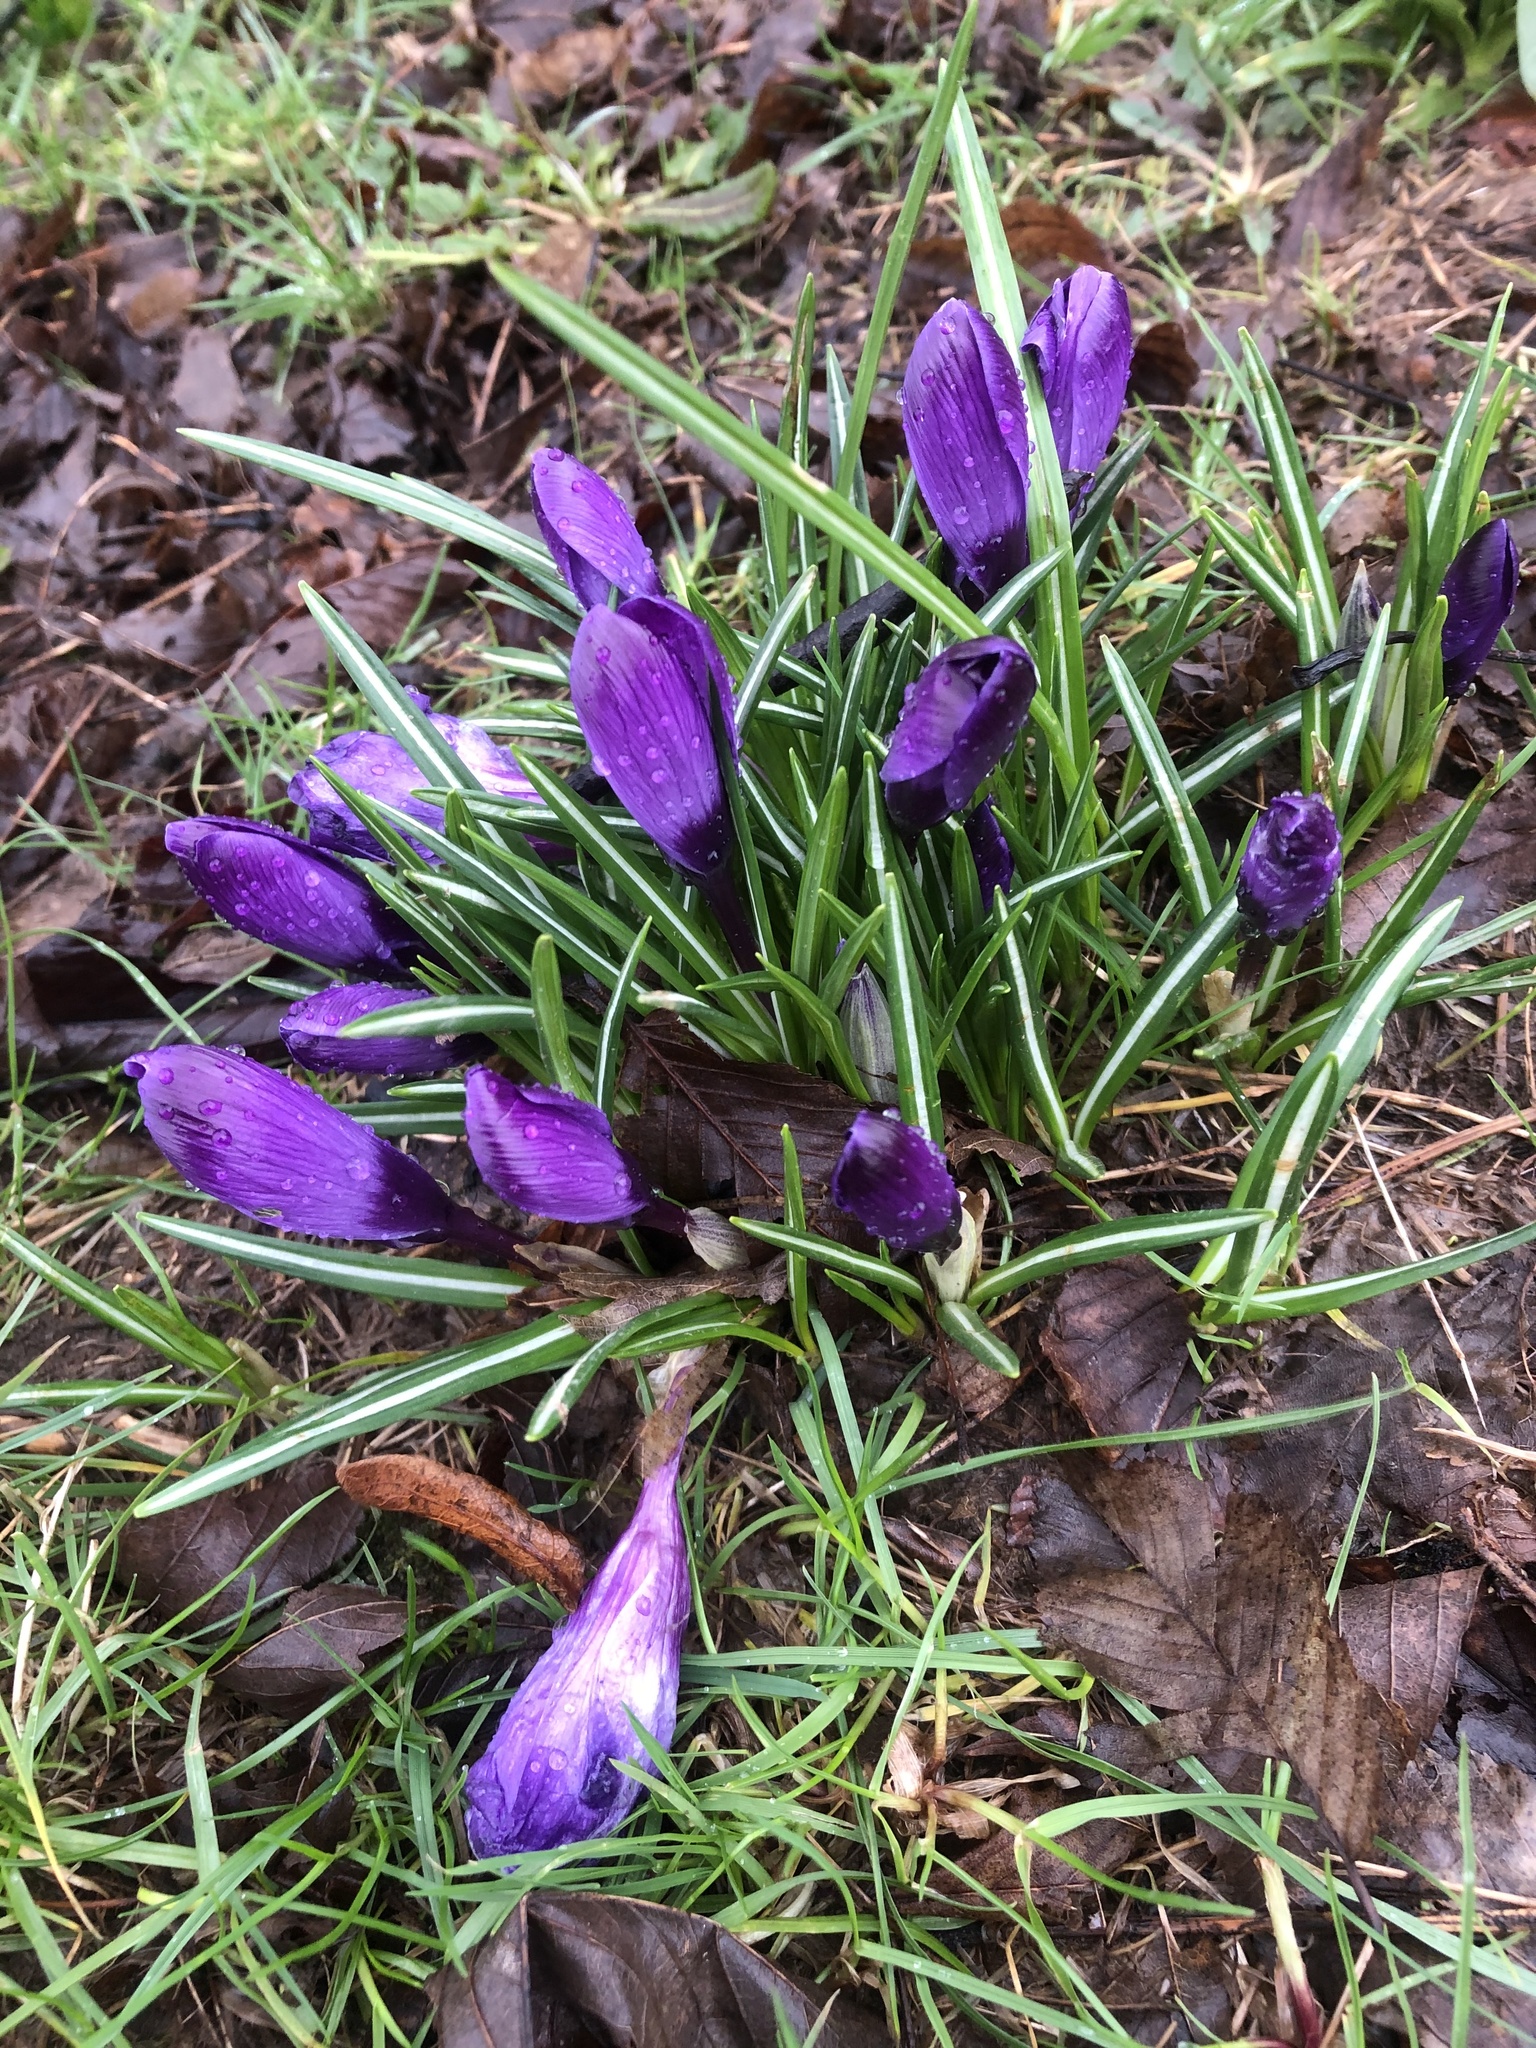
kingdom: Plantae
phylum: Tracheophyta
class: Liliopsida
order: Asparagales
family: Iridaceae
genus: Crocus
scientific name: Crocus neapolitanus
